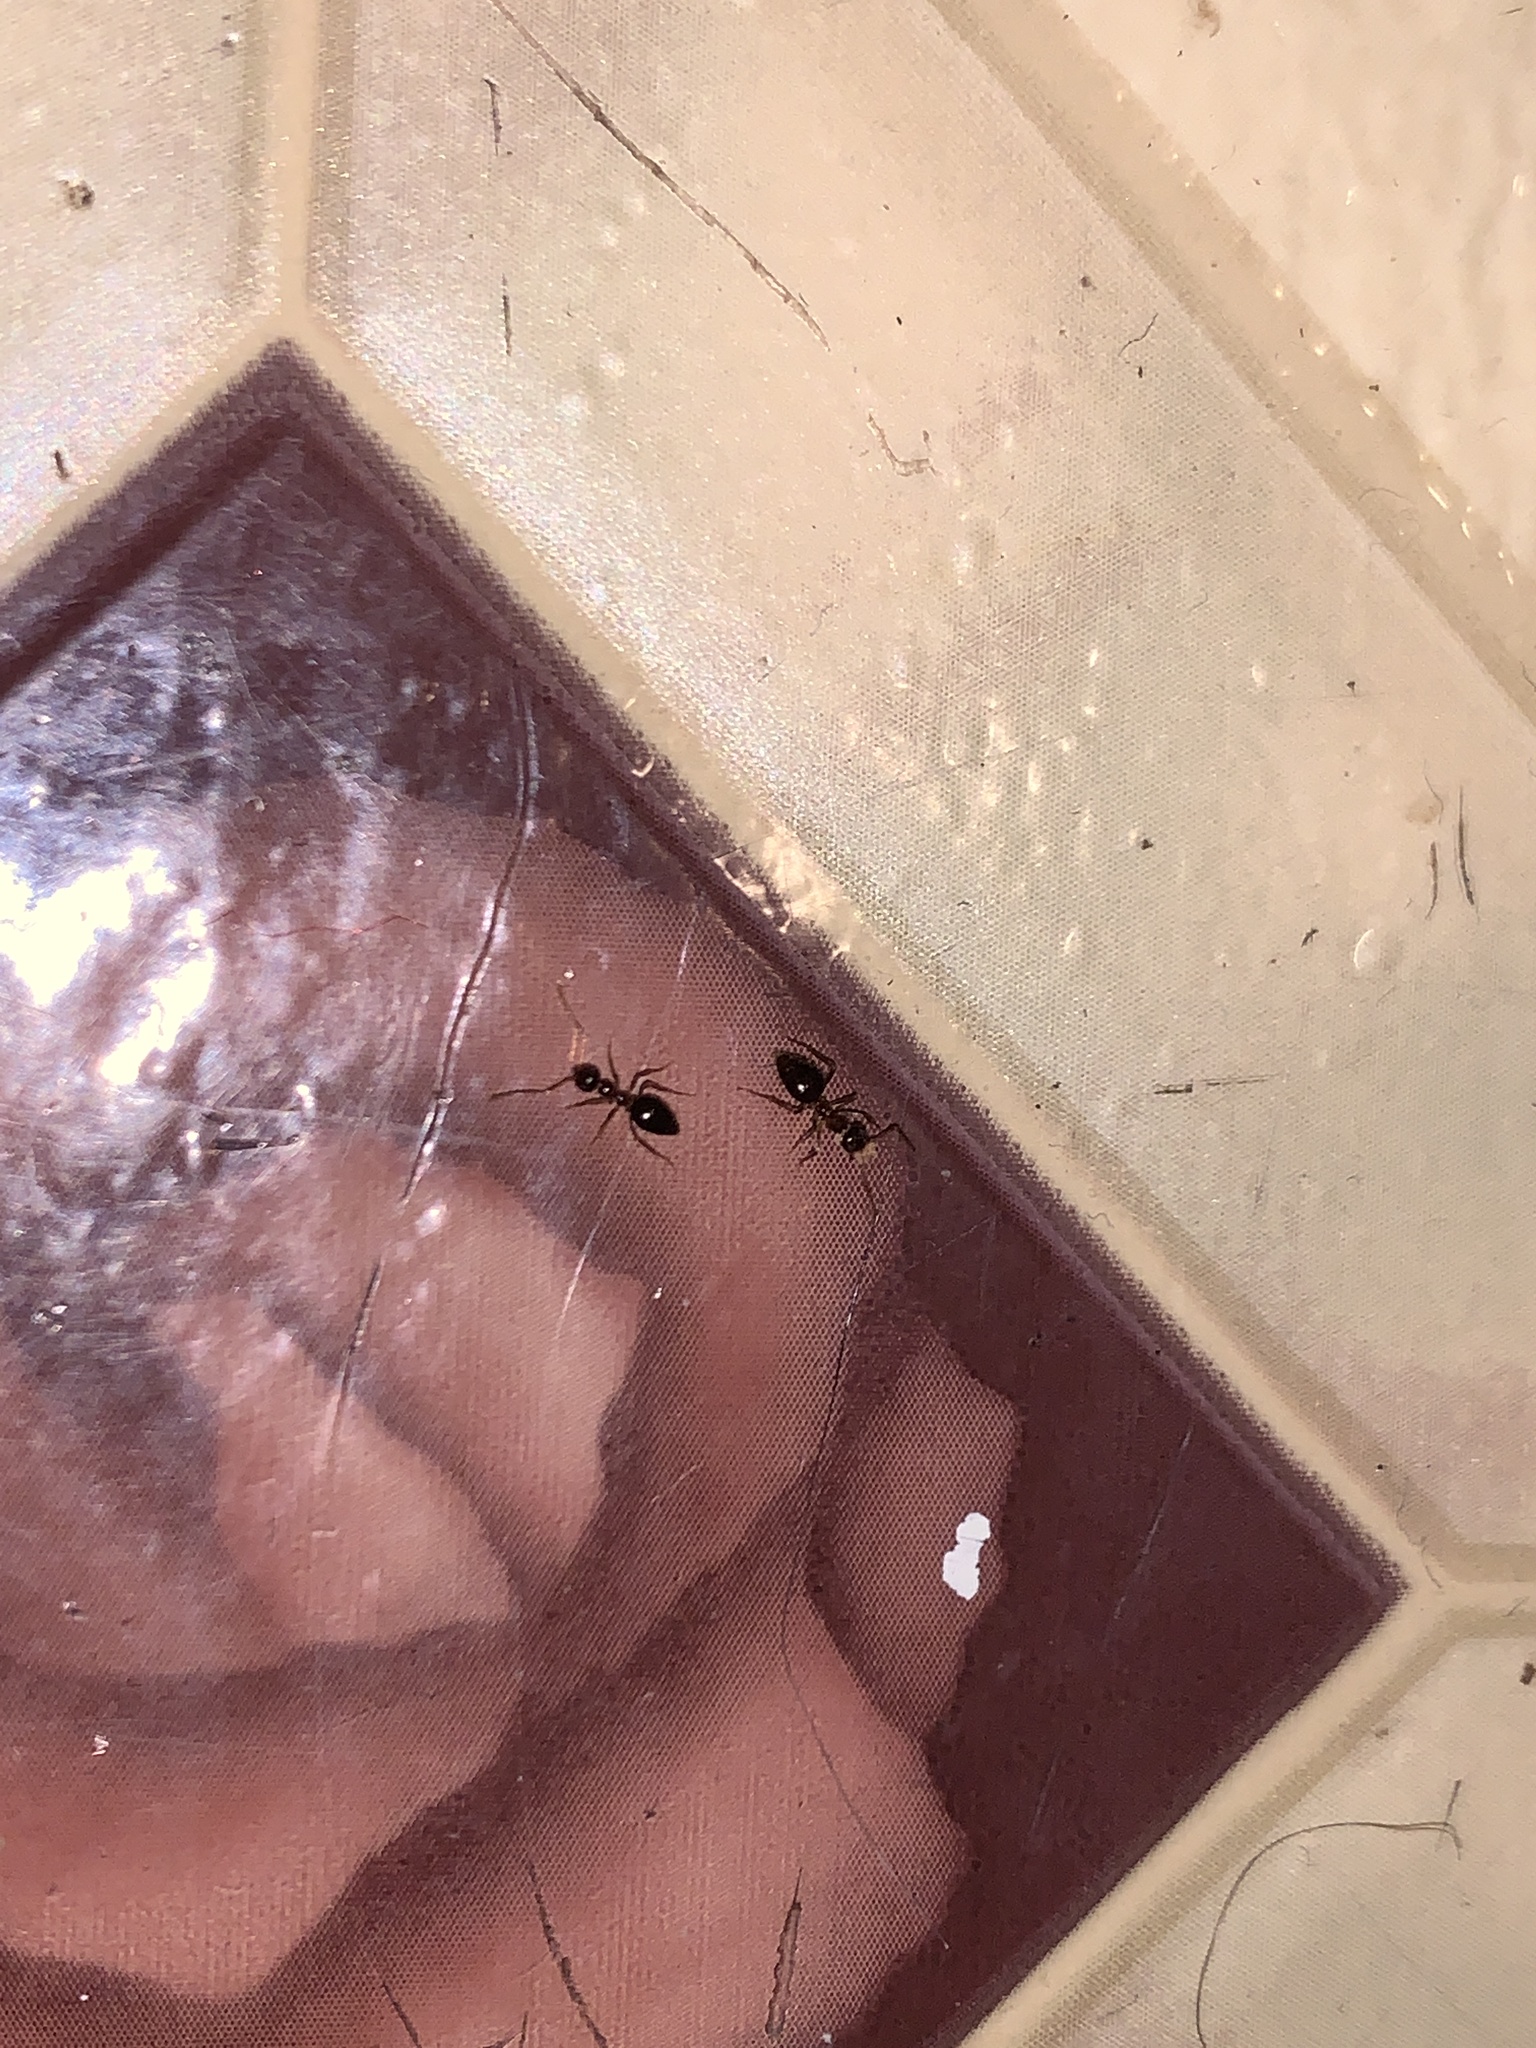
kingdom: Animalia
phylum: Arthropoda
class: Insecta
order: Hymenoptera
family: Formicidae
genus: Prenolepis
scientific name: Prenolepis imparis
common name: Small honey ant
